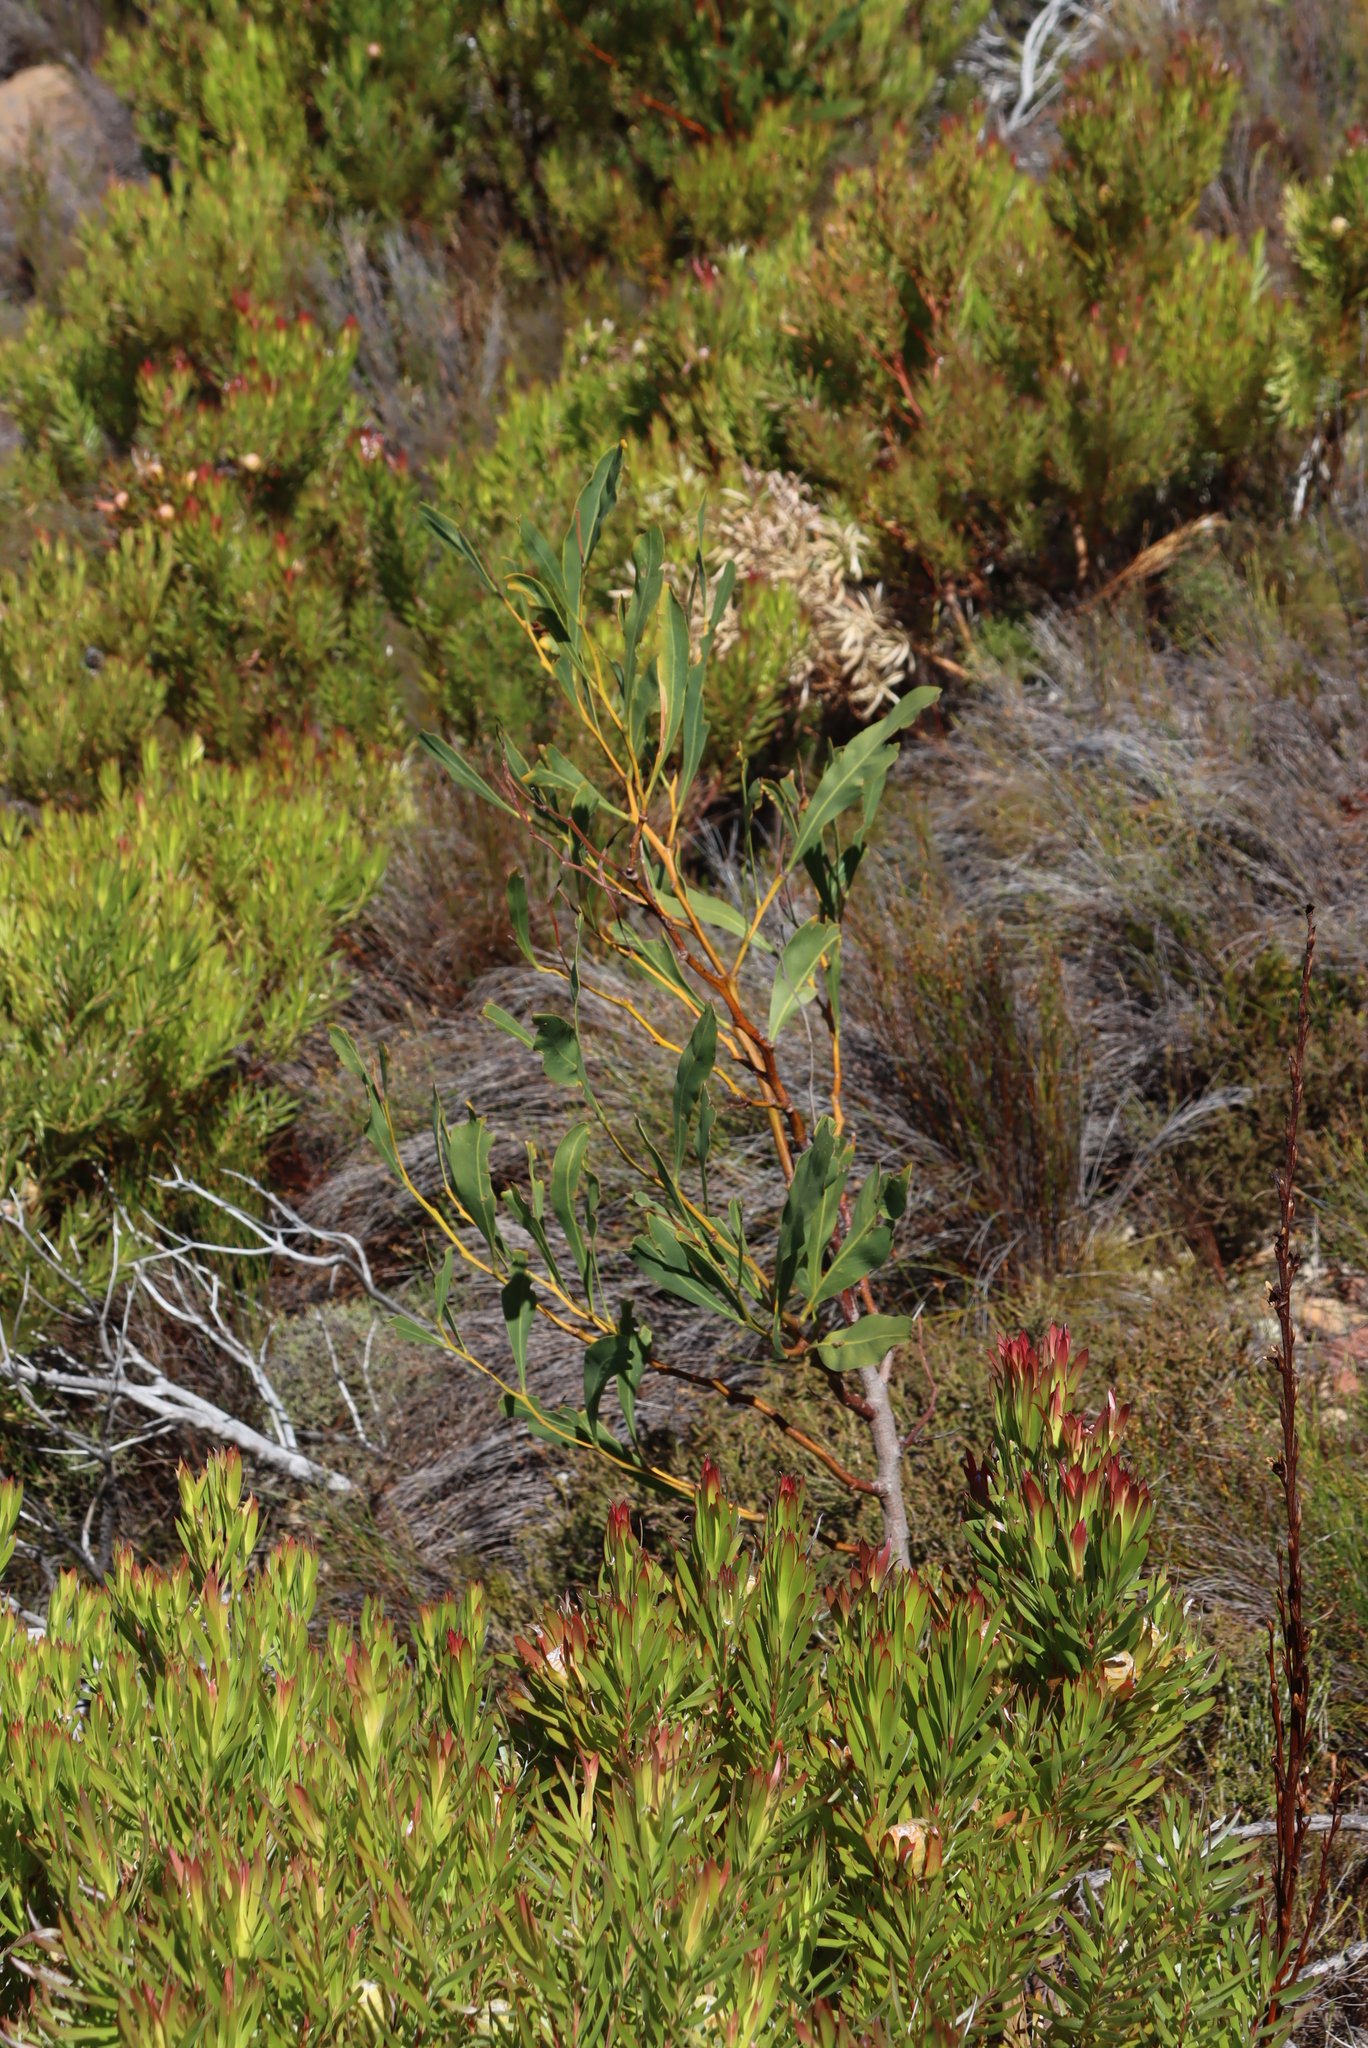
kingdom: Plantae
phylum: Tracheophyta
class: Magnoliopsida
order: Fabales
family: Fabaceae
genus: Acacia
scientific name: Acacia saligna
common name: Orange wattle
